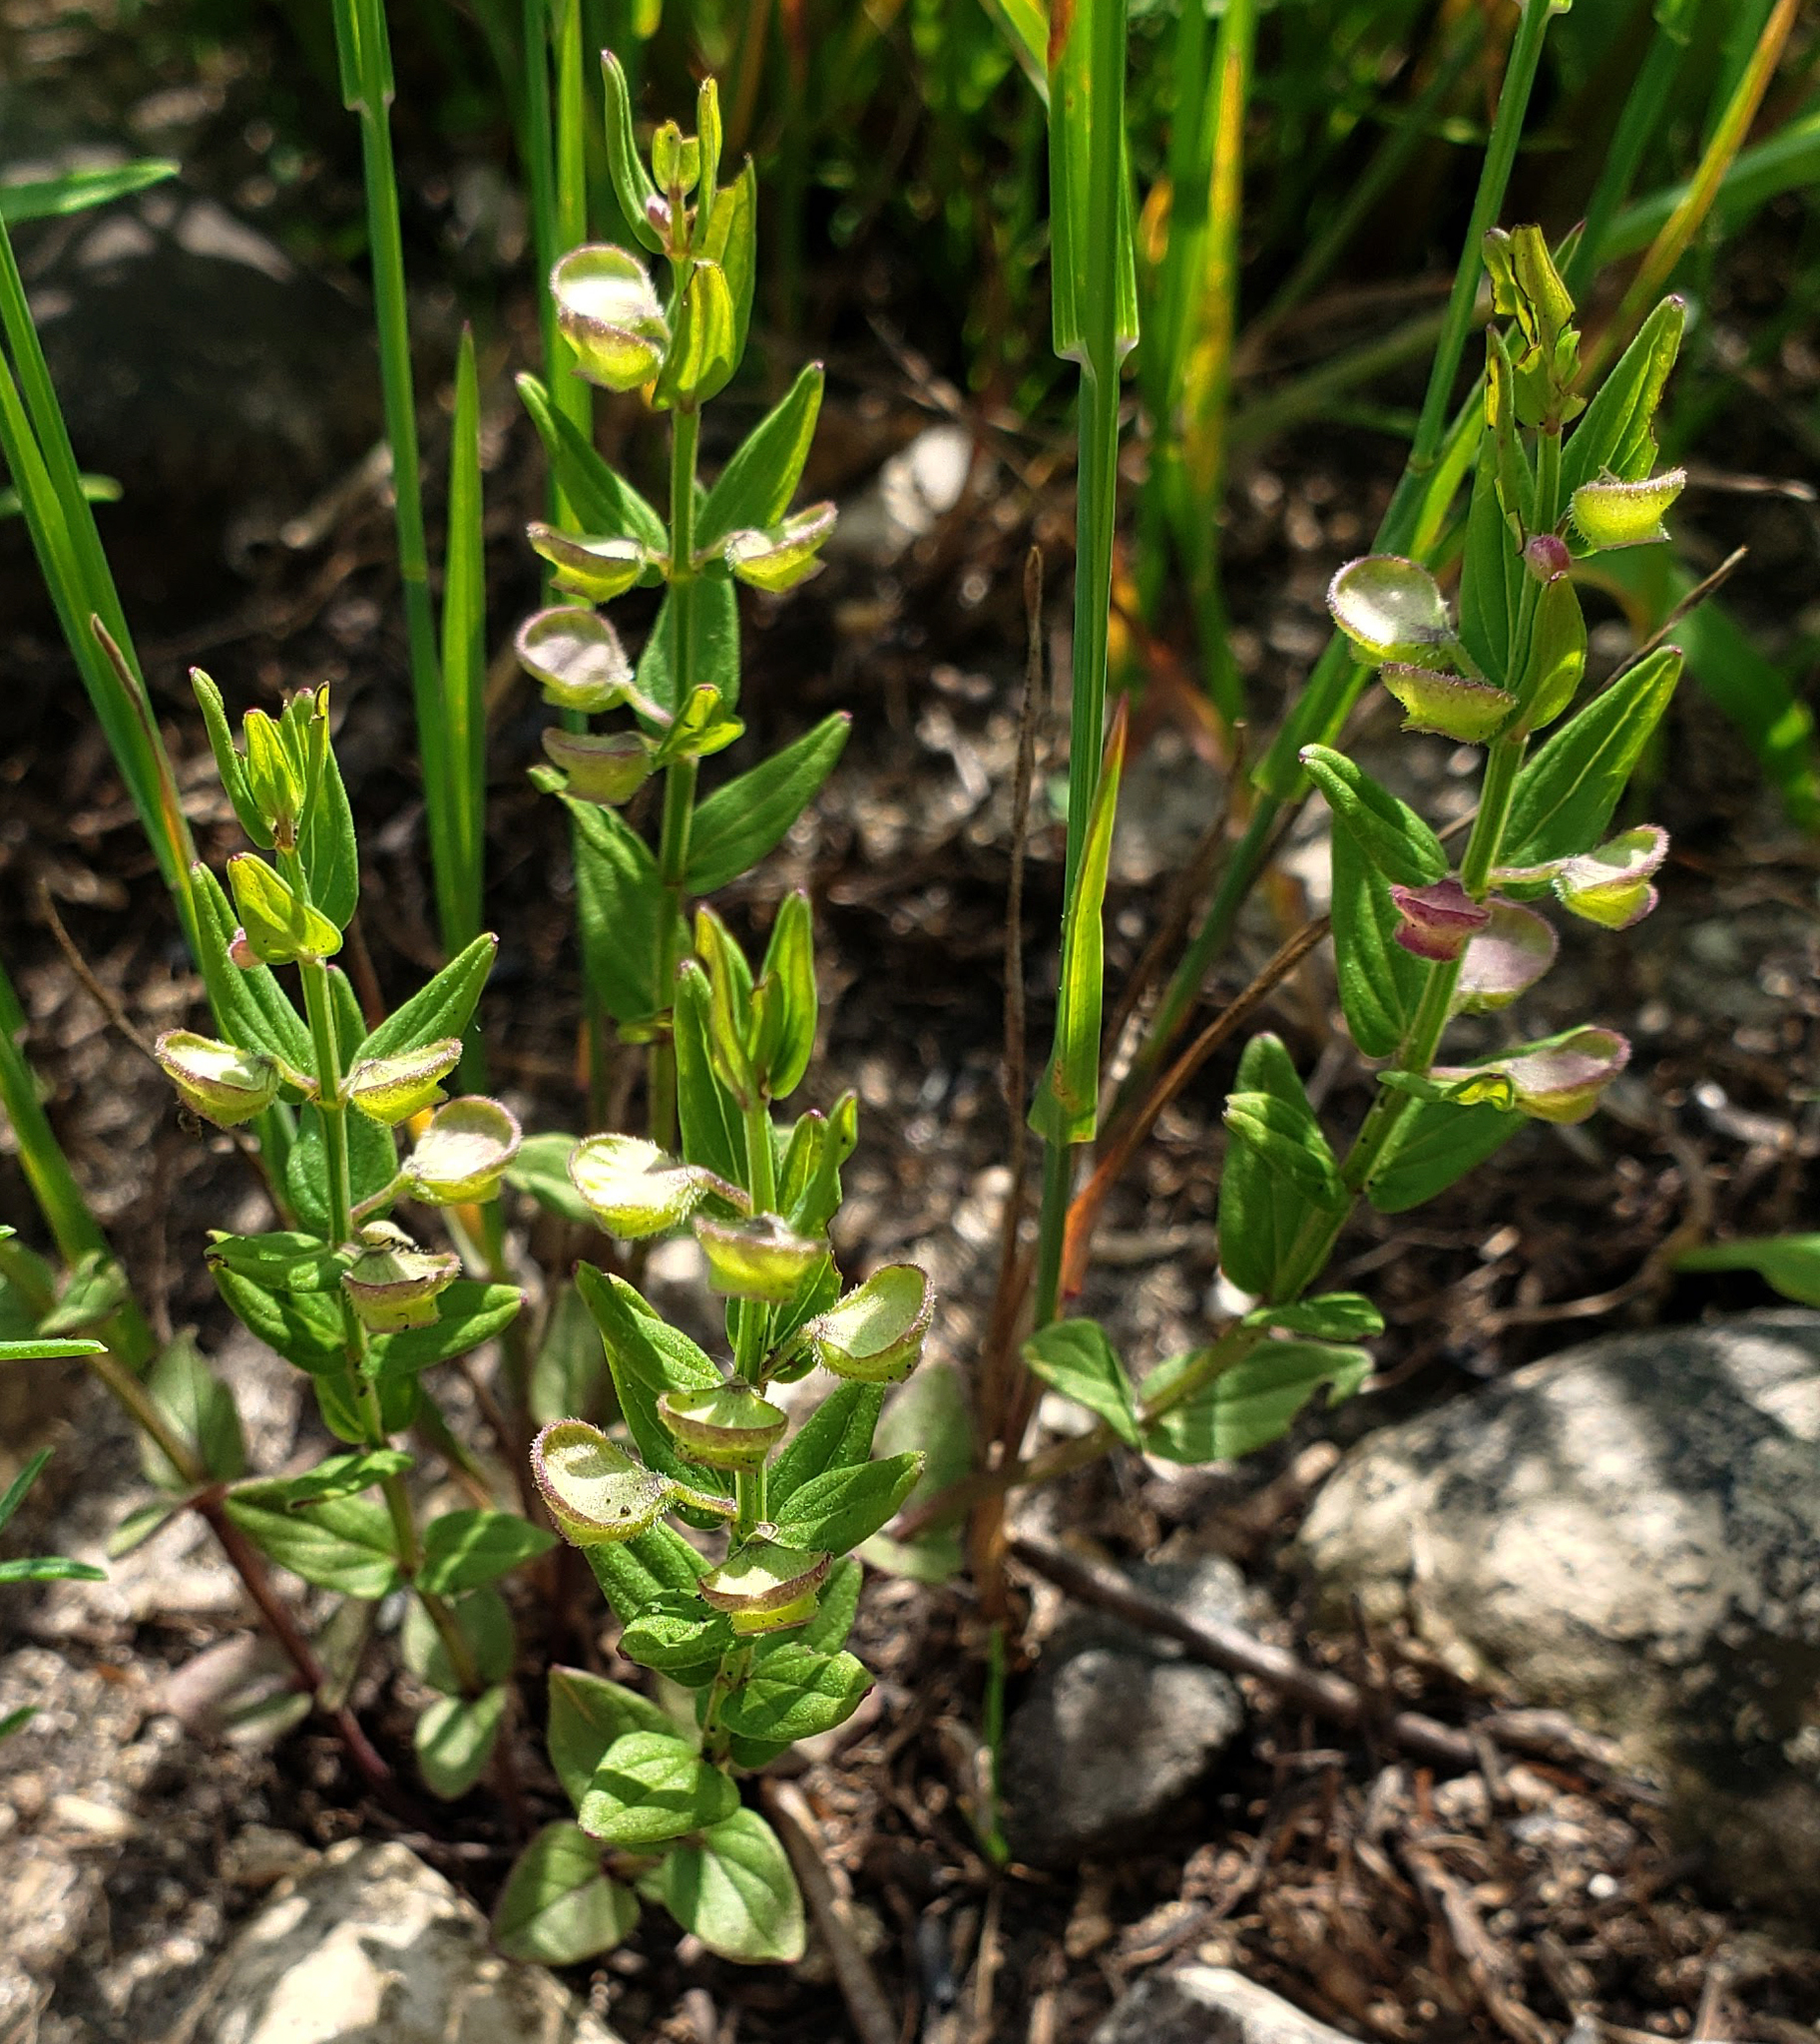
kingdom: Plantae
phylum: Tracheophyta
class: Magnoliopsida
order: Lamiales
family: Lamiaceae
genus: Scutellaria
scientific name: Scutellaria parvula
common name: Little scullcap
